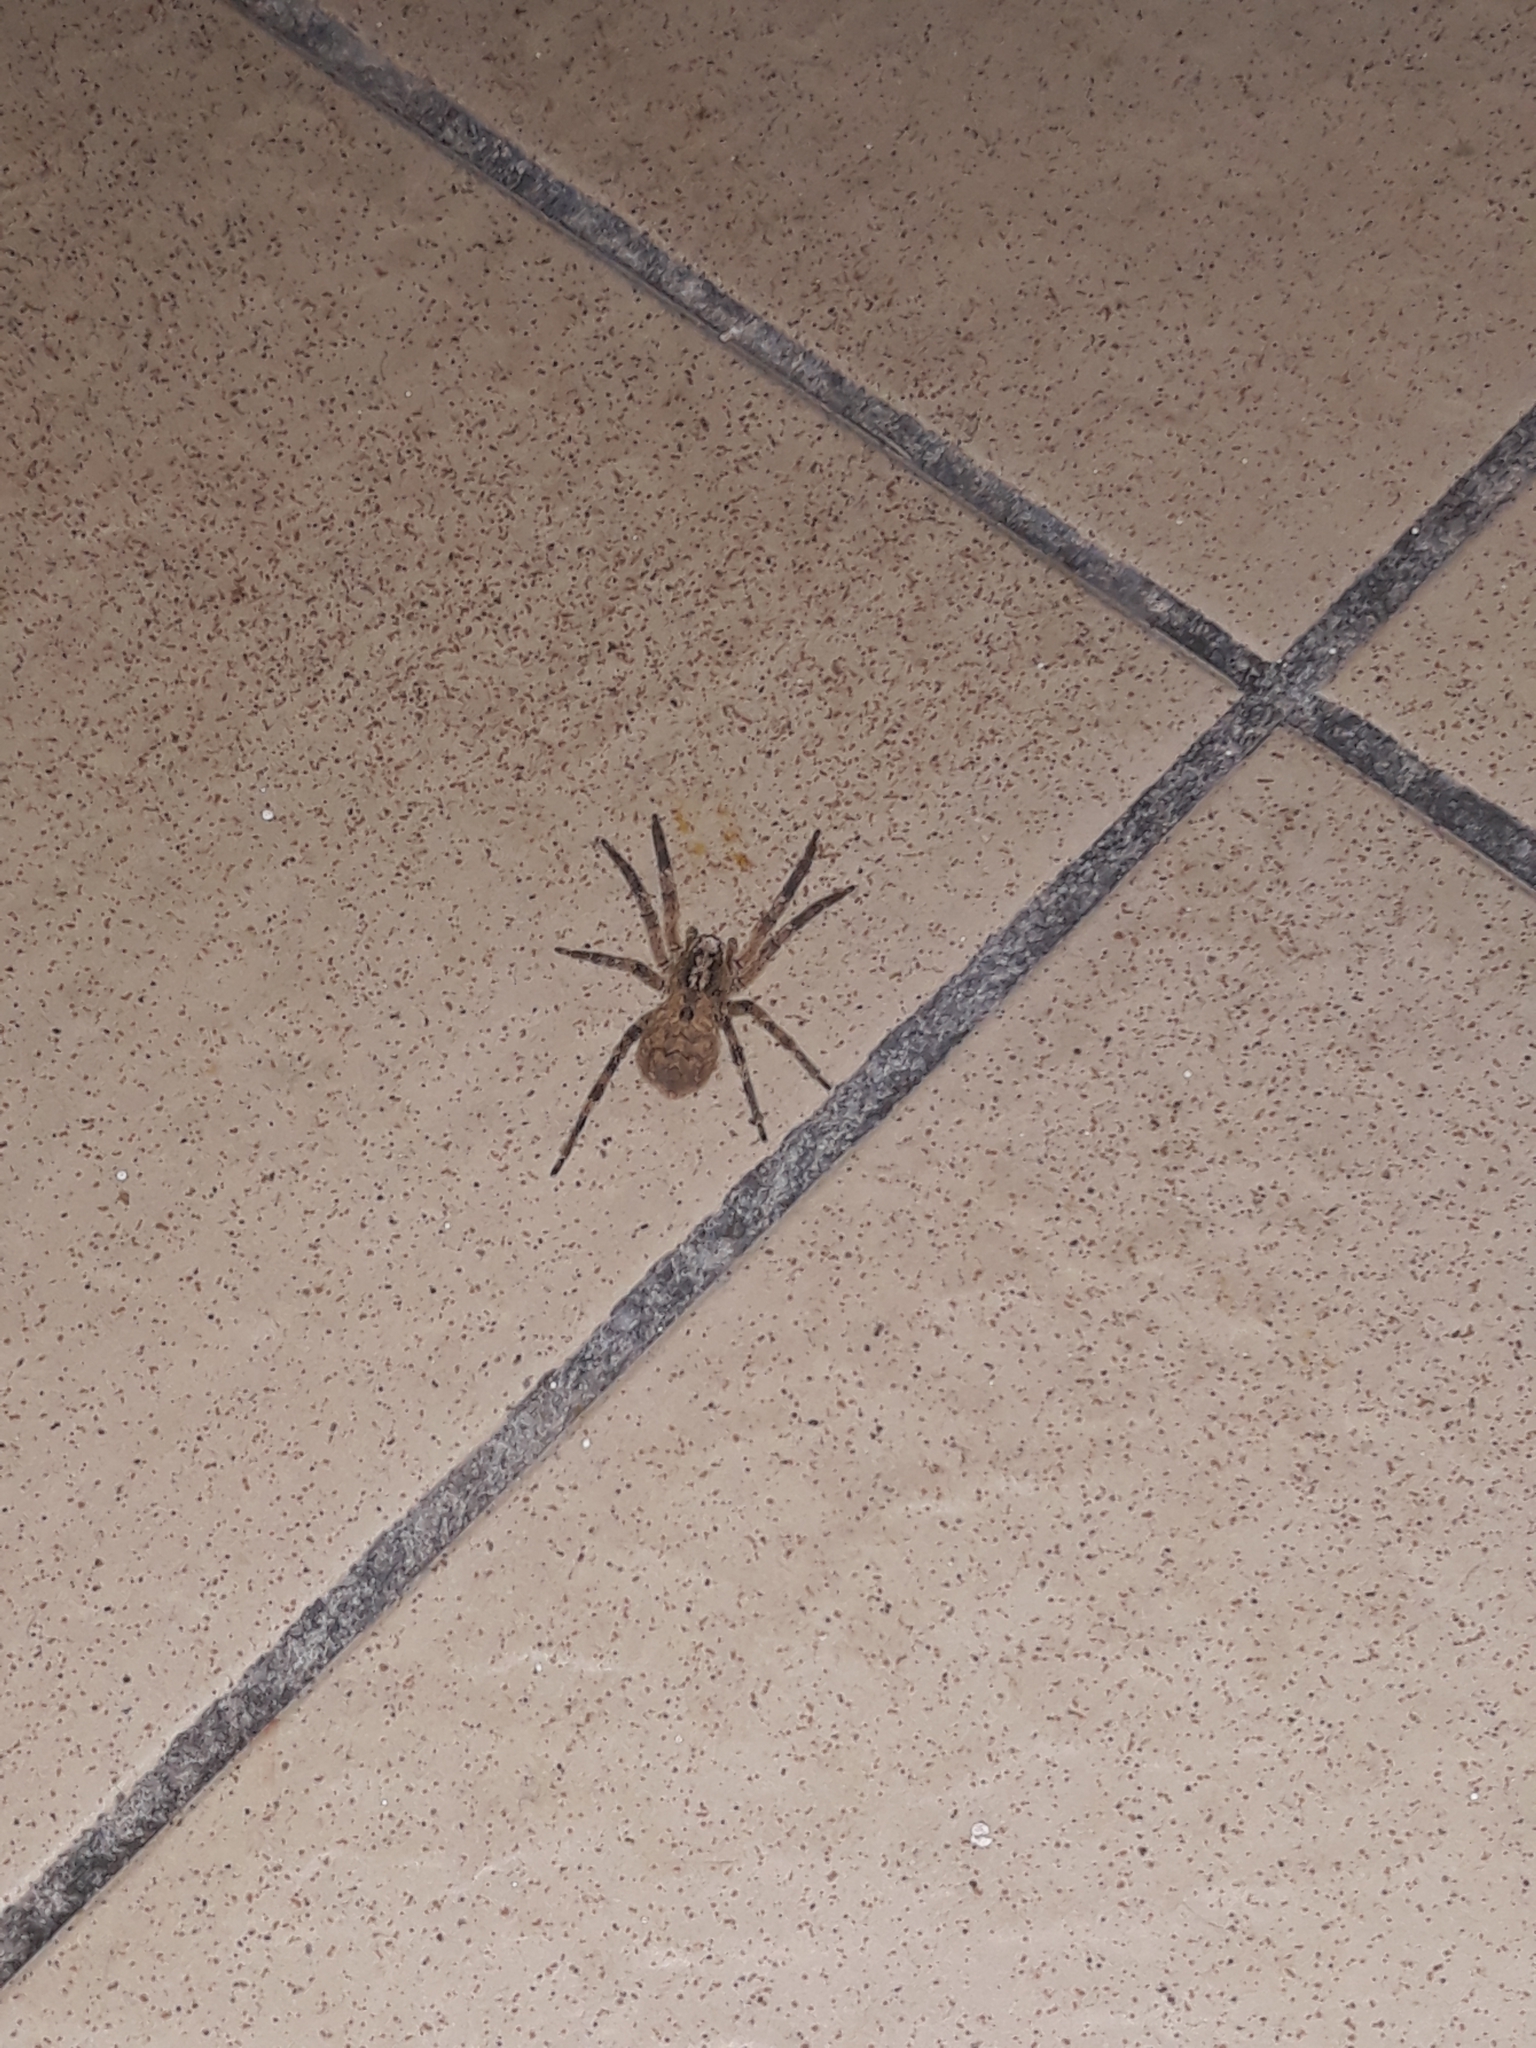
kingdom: Animalia
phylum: Arthropoda
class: Arachnida
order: Araneae
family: Zoropsidae
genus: Zoropsis
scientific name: Zoropsis spinimana
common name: Zoropsid spider
